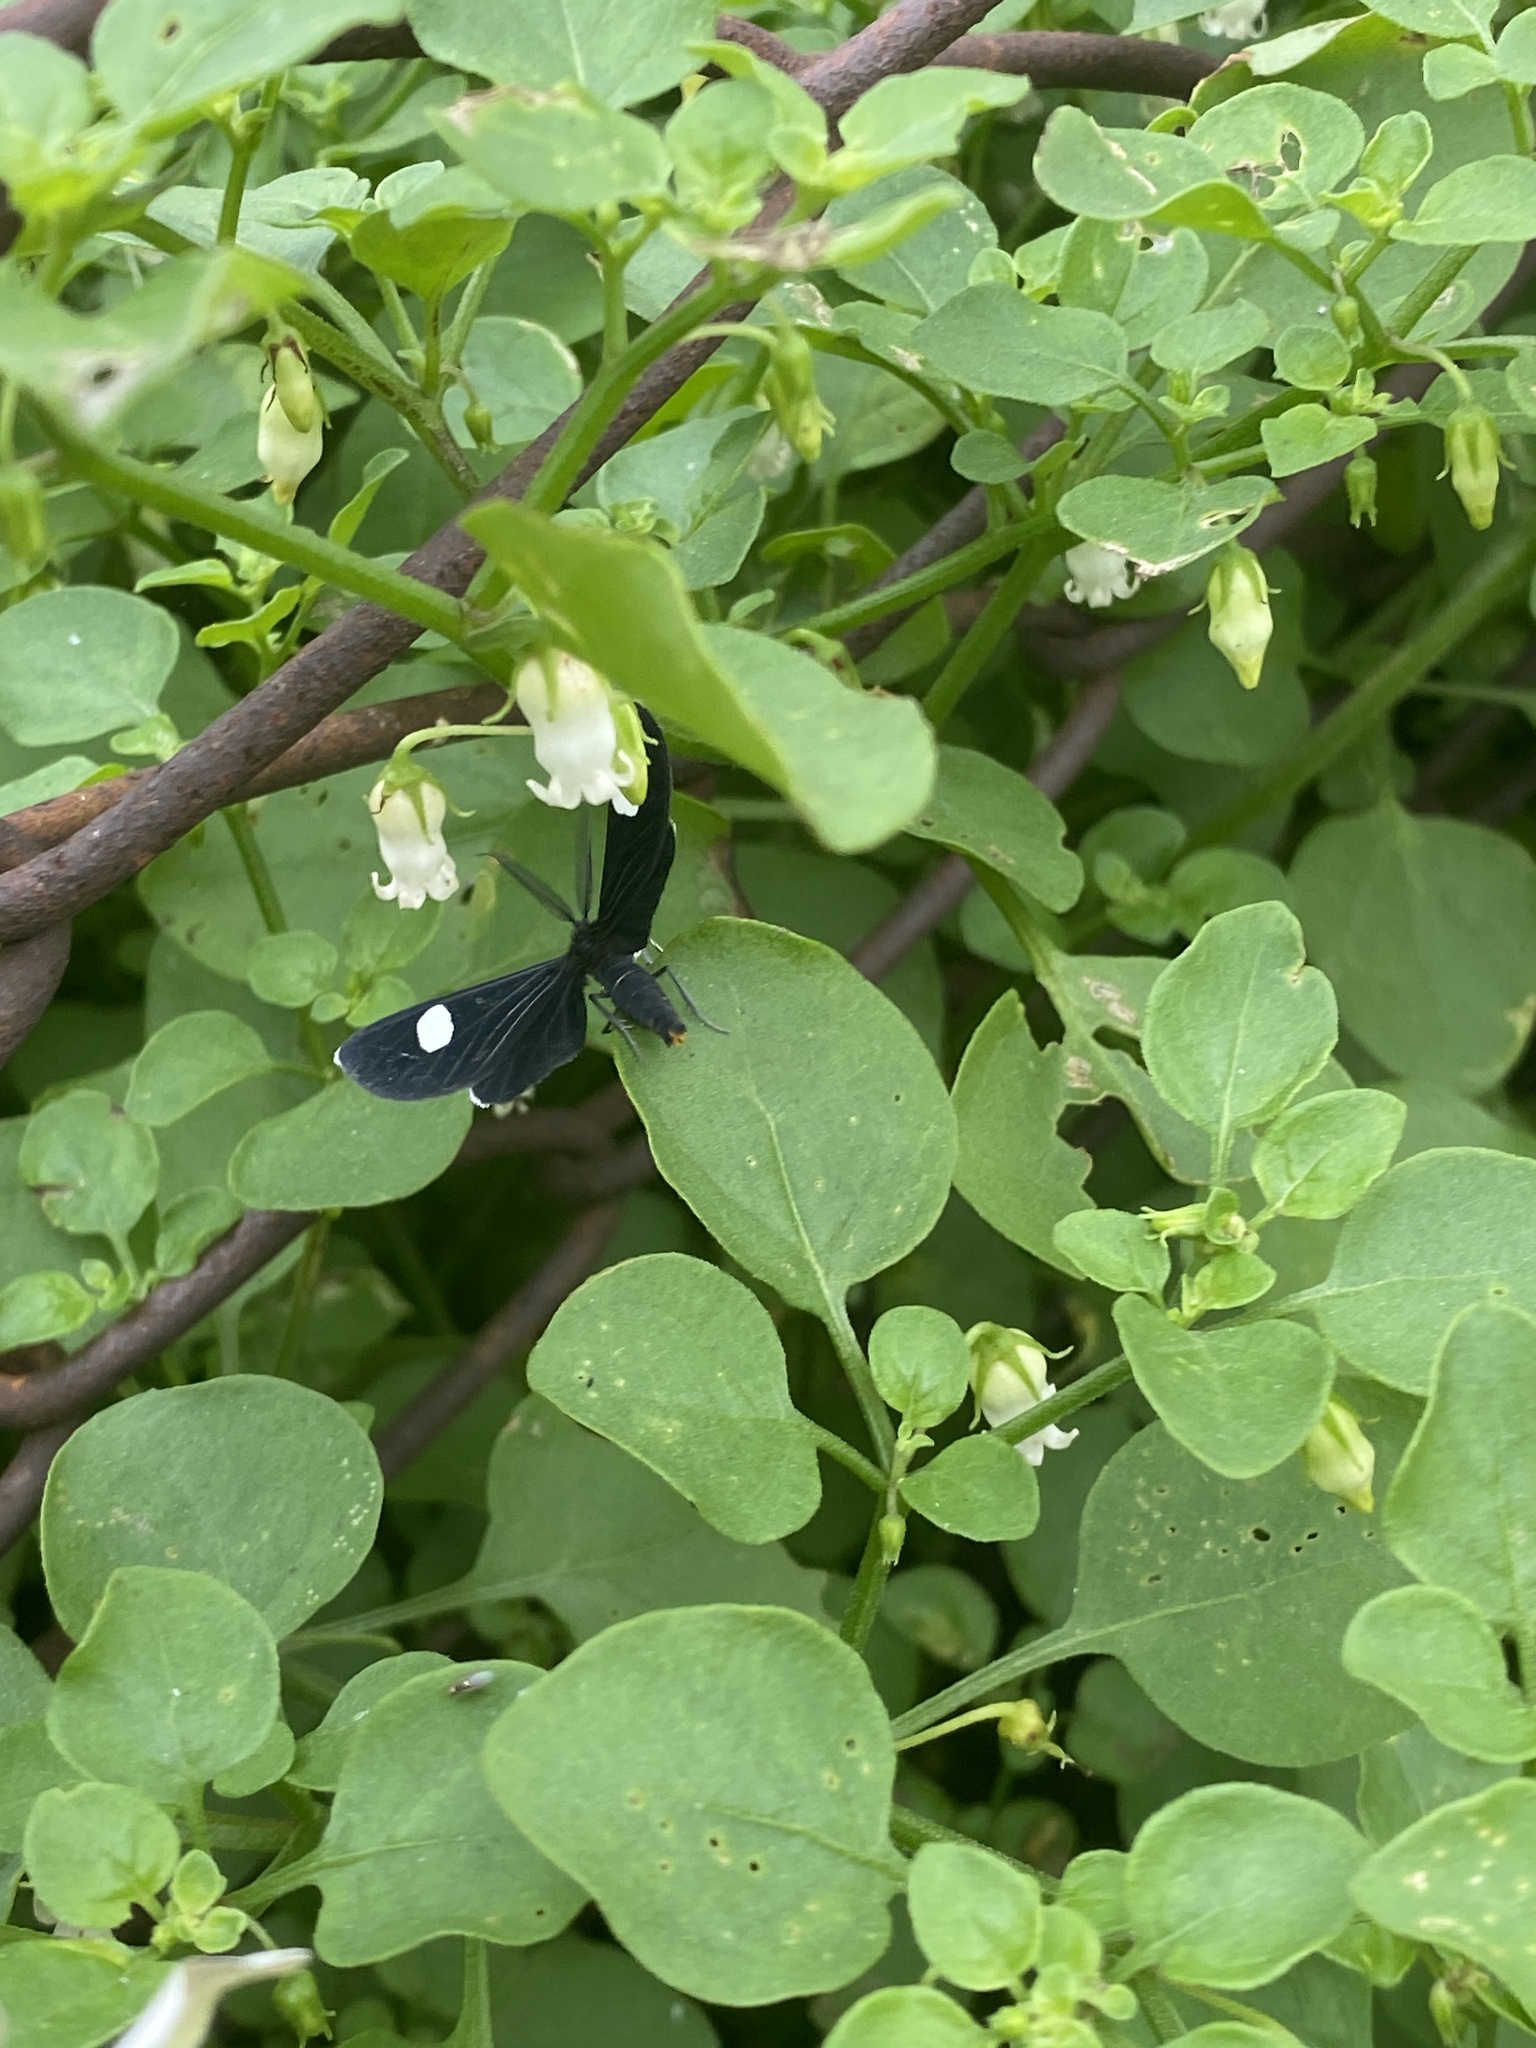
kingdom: Animalia
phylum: Arthropoda
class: Insecta
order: Lepidoptera
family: Geometridae
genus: Melanchroia
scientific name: Melanchroia aterea
